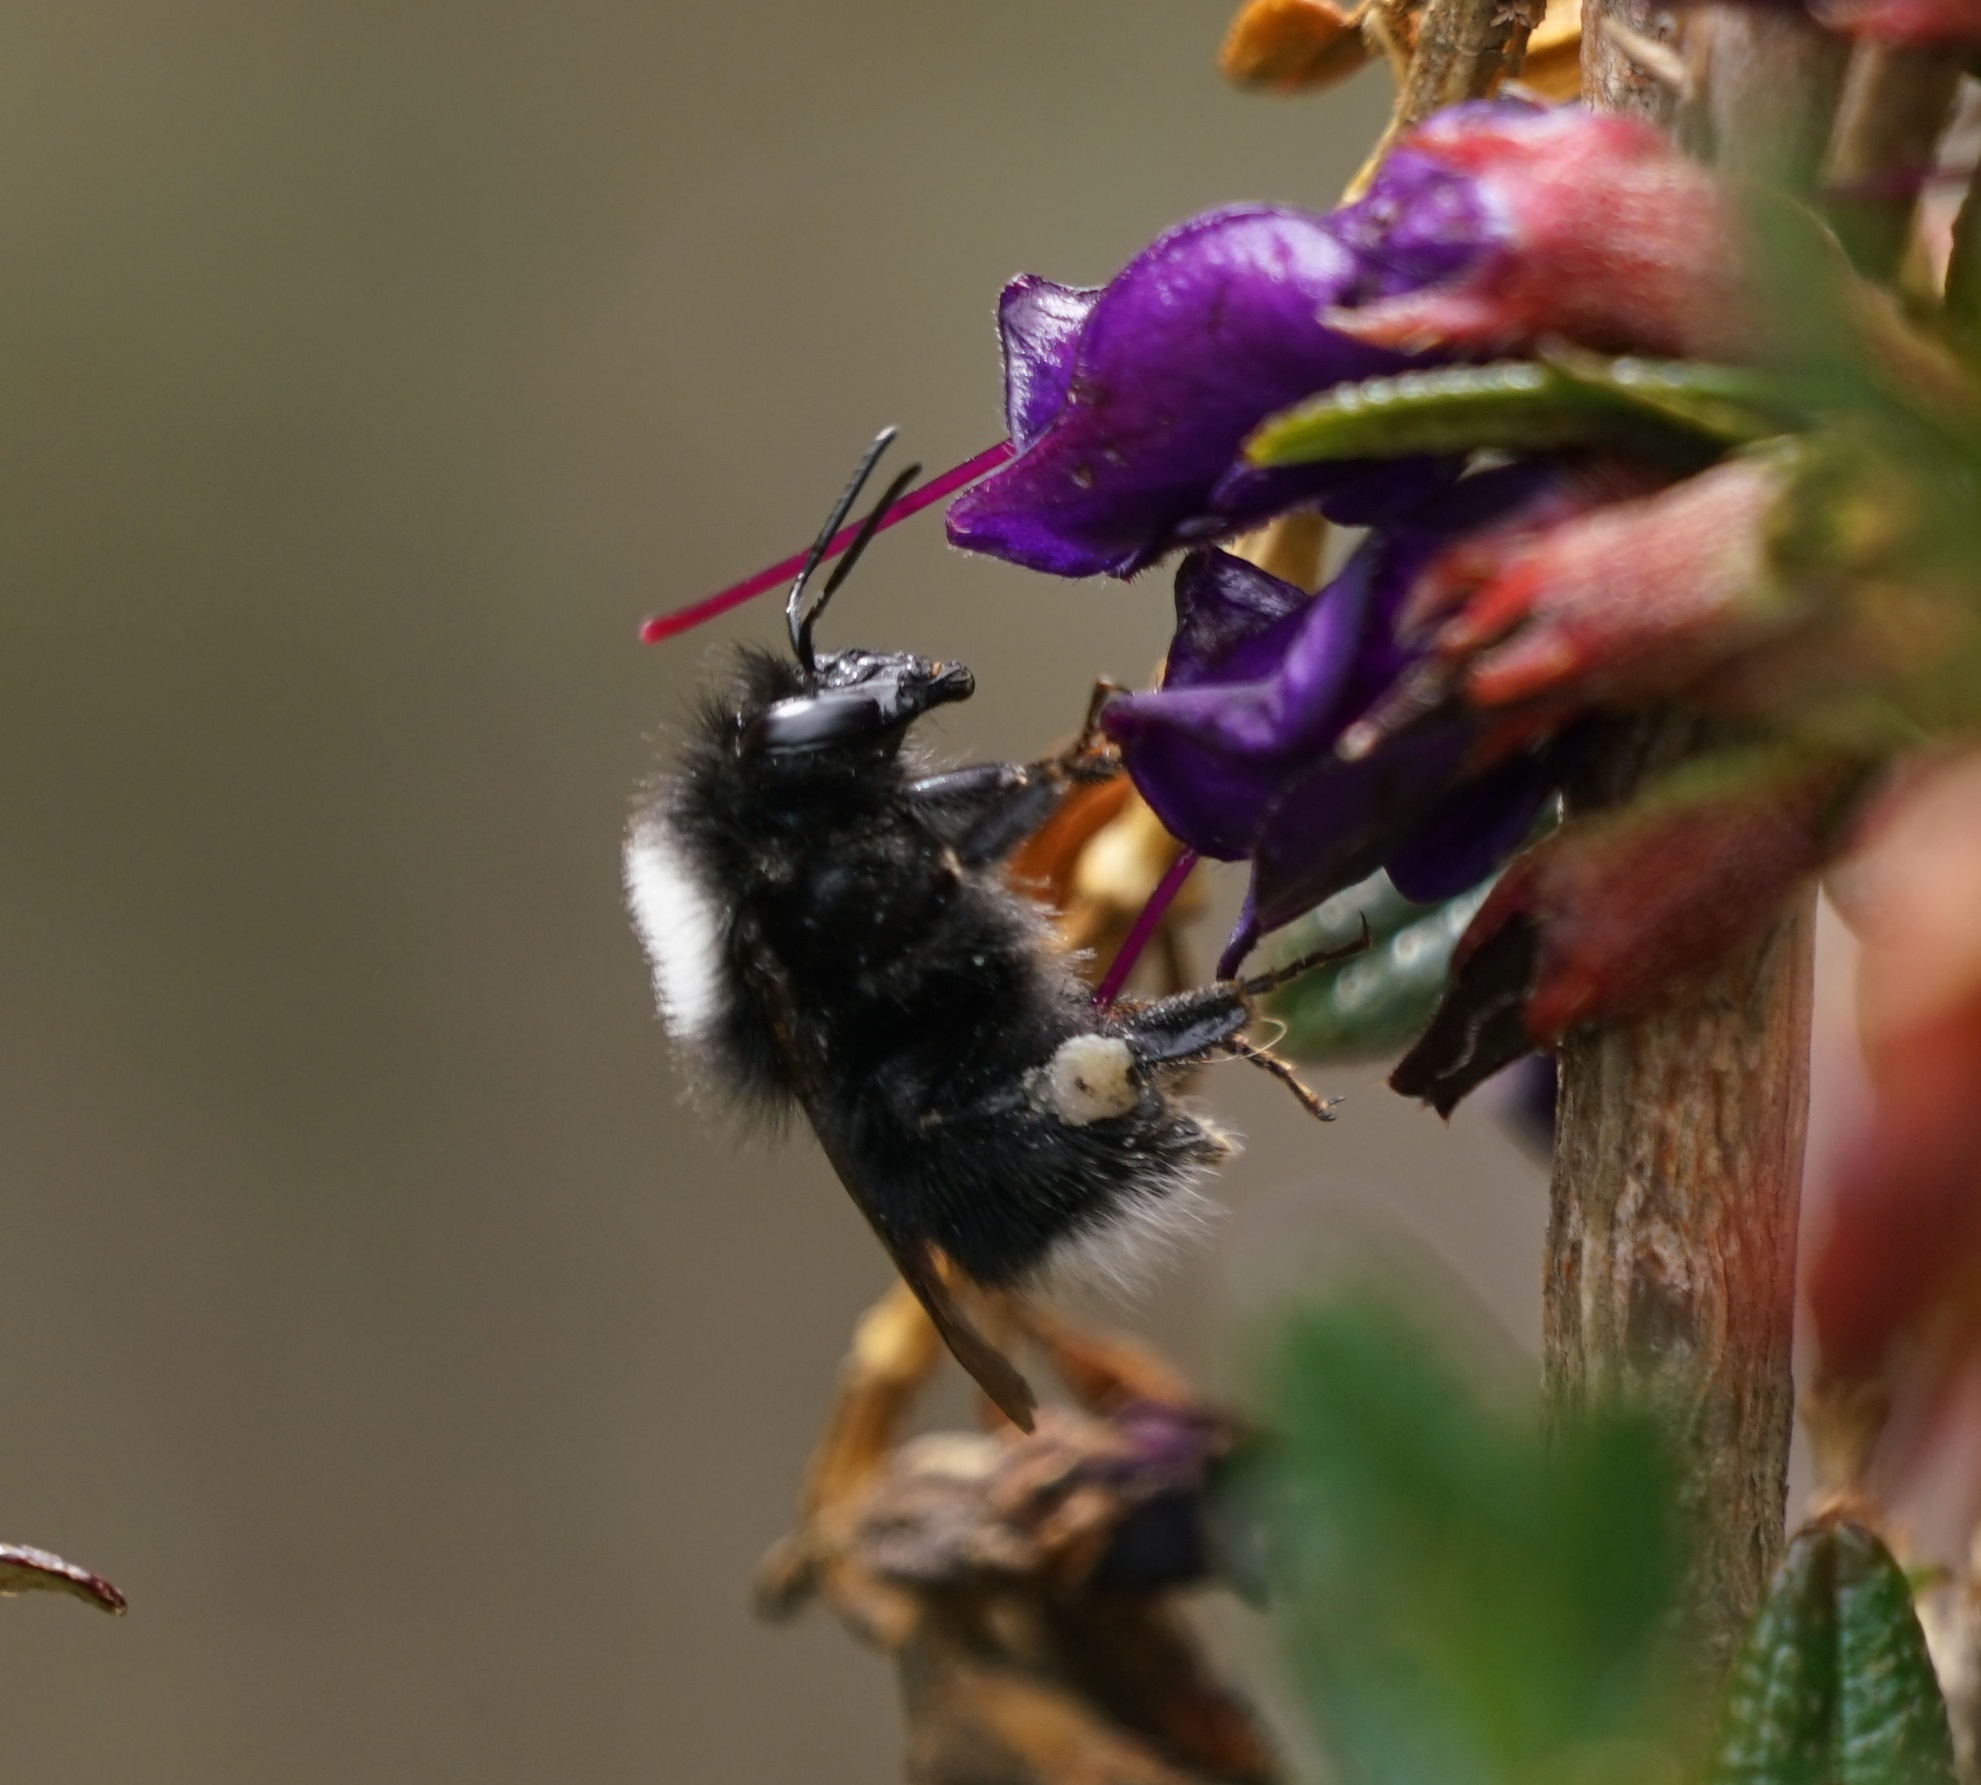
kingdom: Animalia
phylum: Arthropoda
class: Insecta
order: Hymenoptera
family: Apidae
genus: Bombus
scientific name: Bombus funebris
